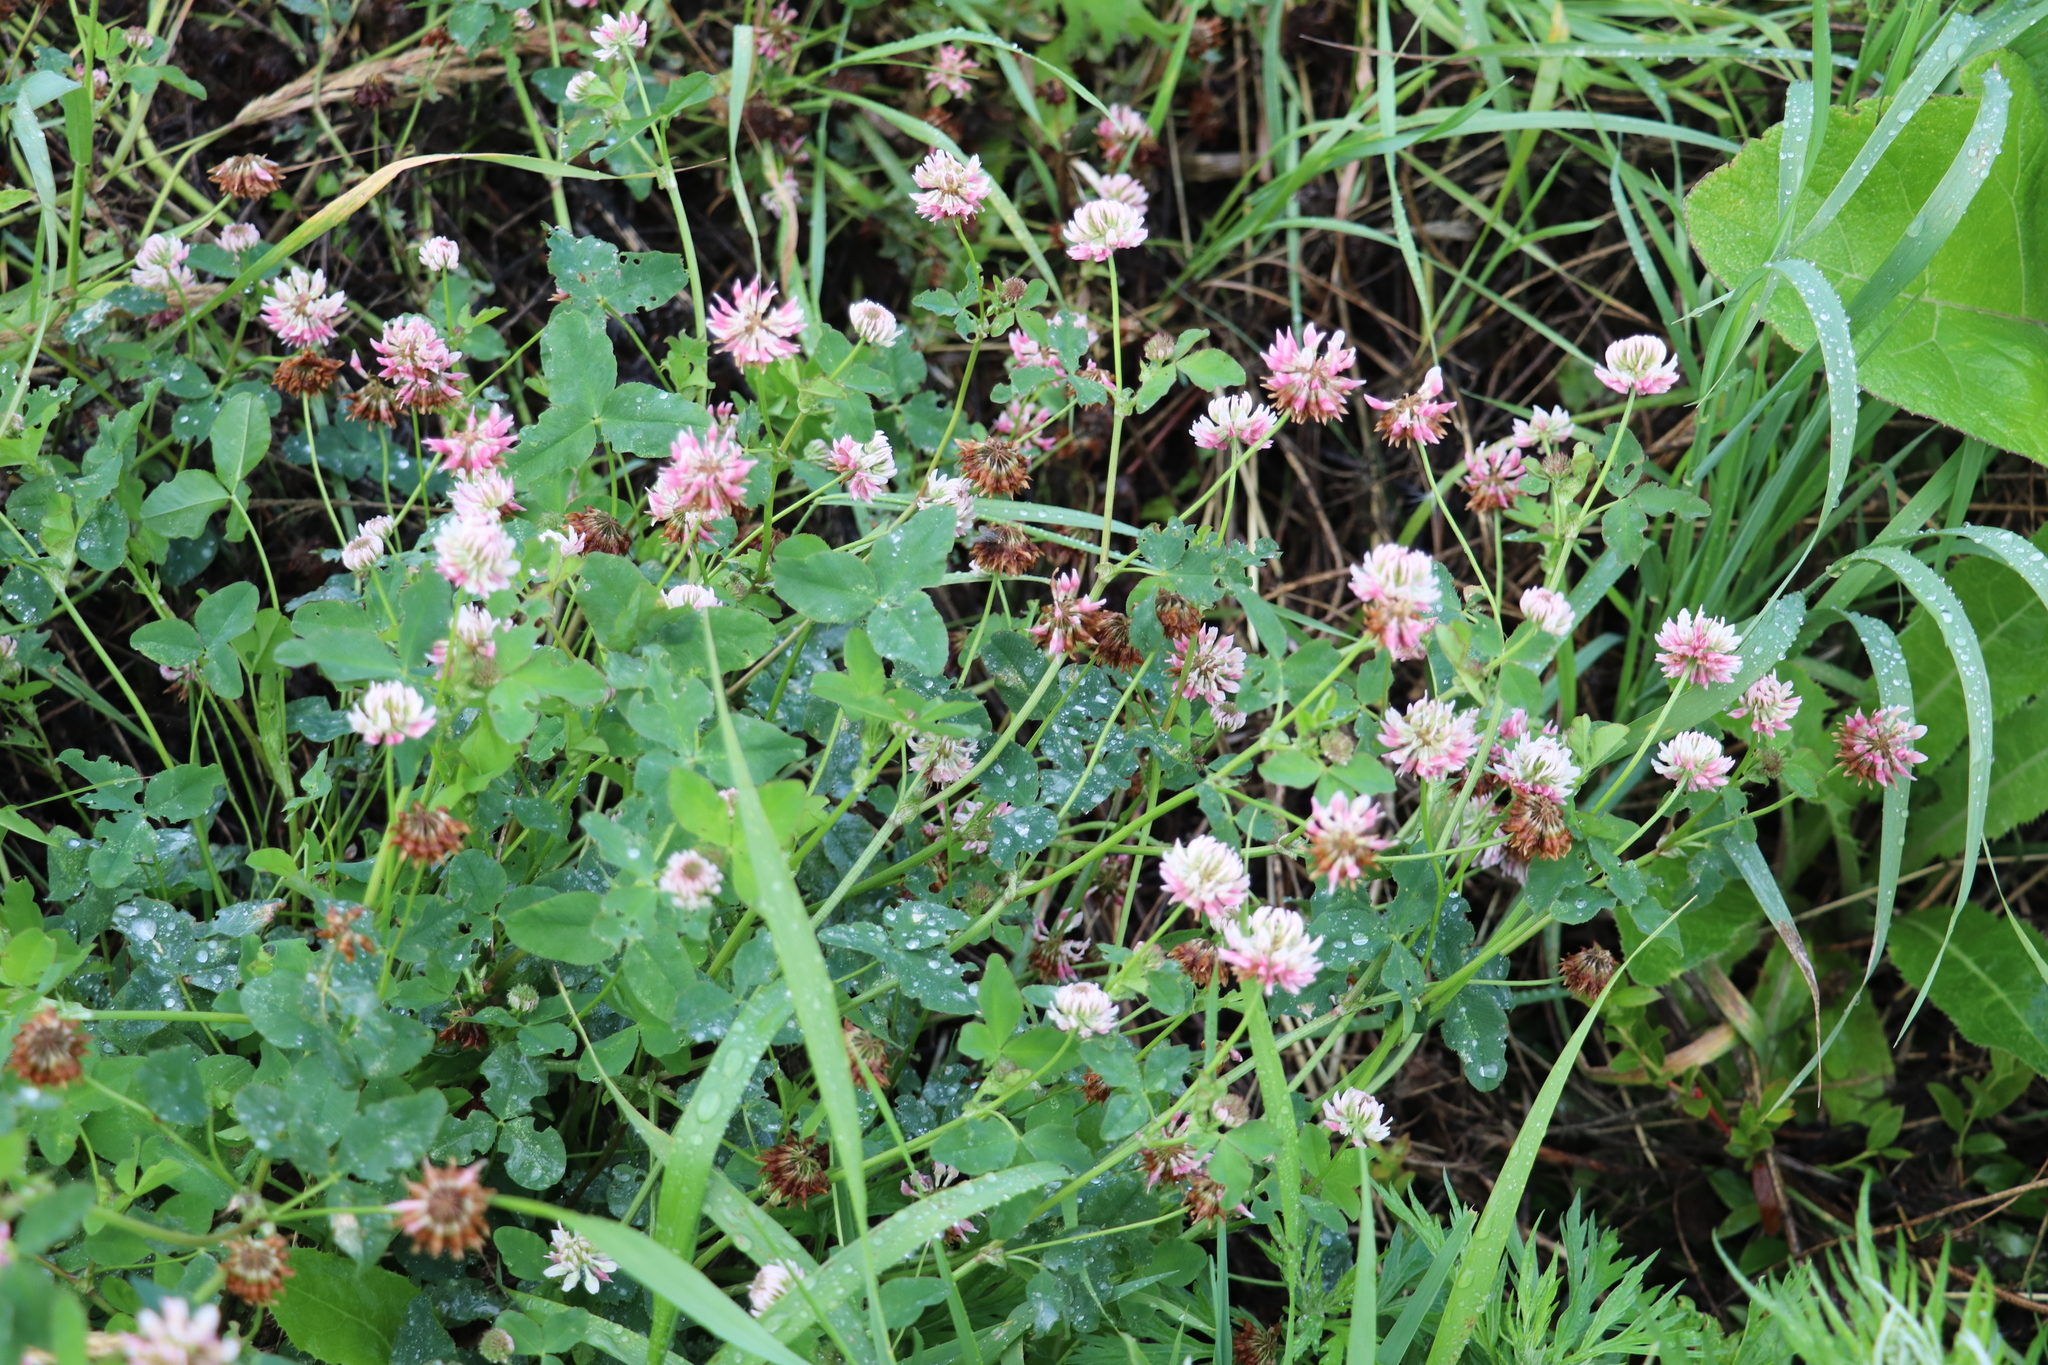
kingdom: Plantae
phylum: Tracheophyta
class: Magnoliopsida
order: Fabales
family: Fabaceae
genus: Trifolium
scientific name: Trifolium hybridum
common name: Alsike clover
